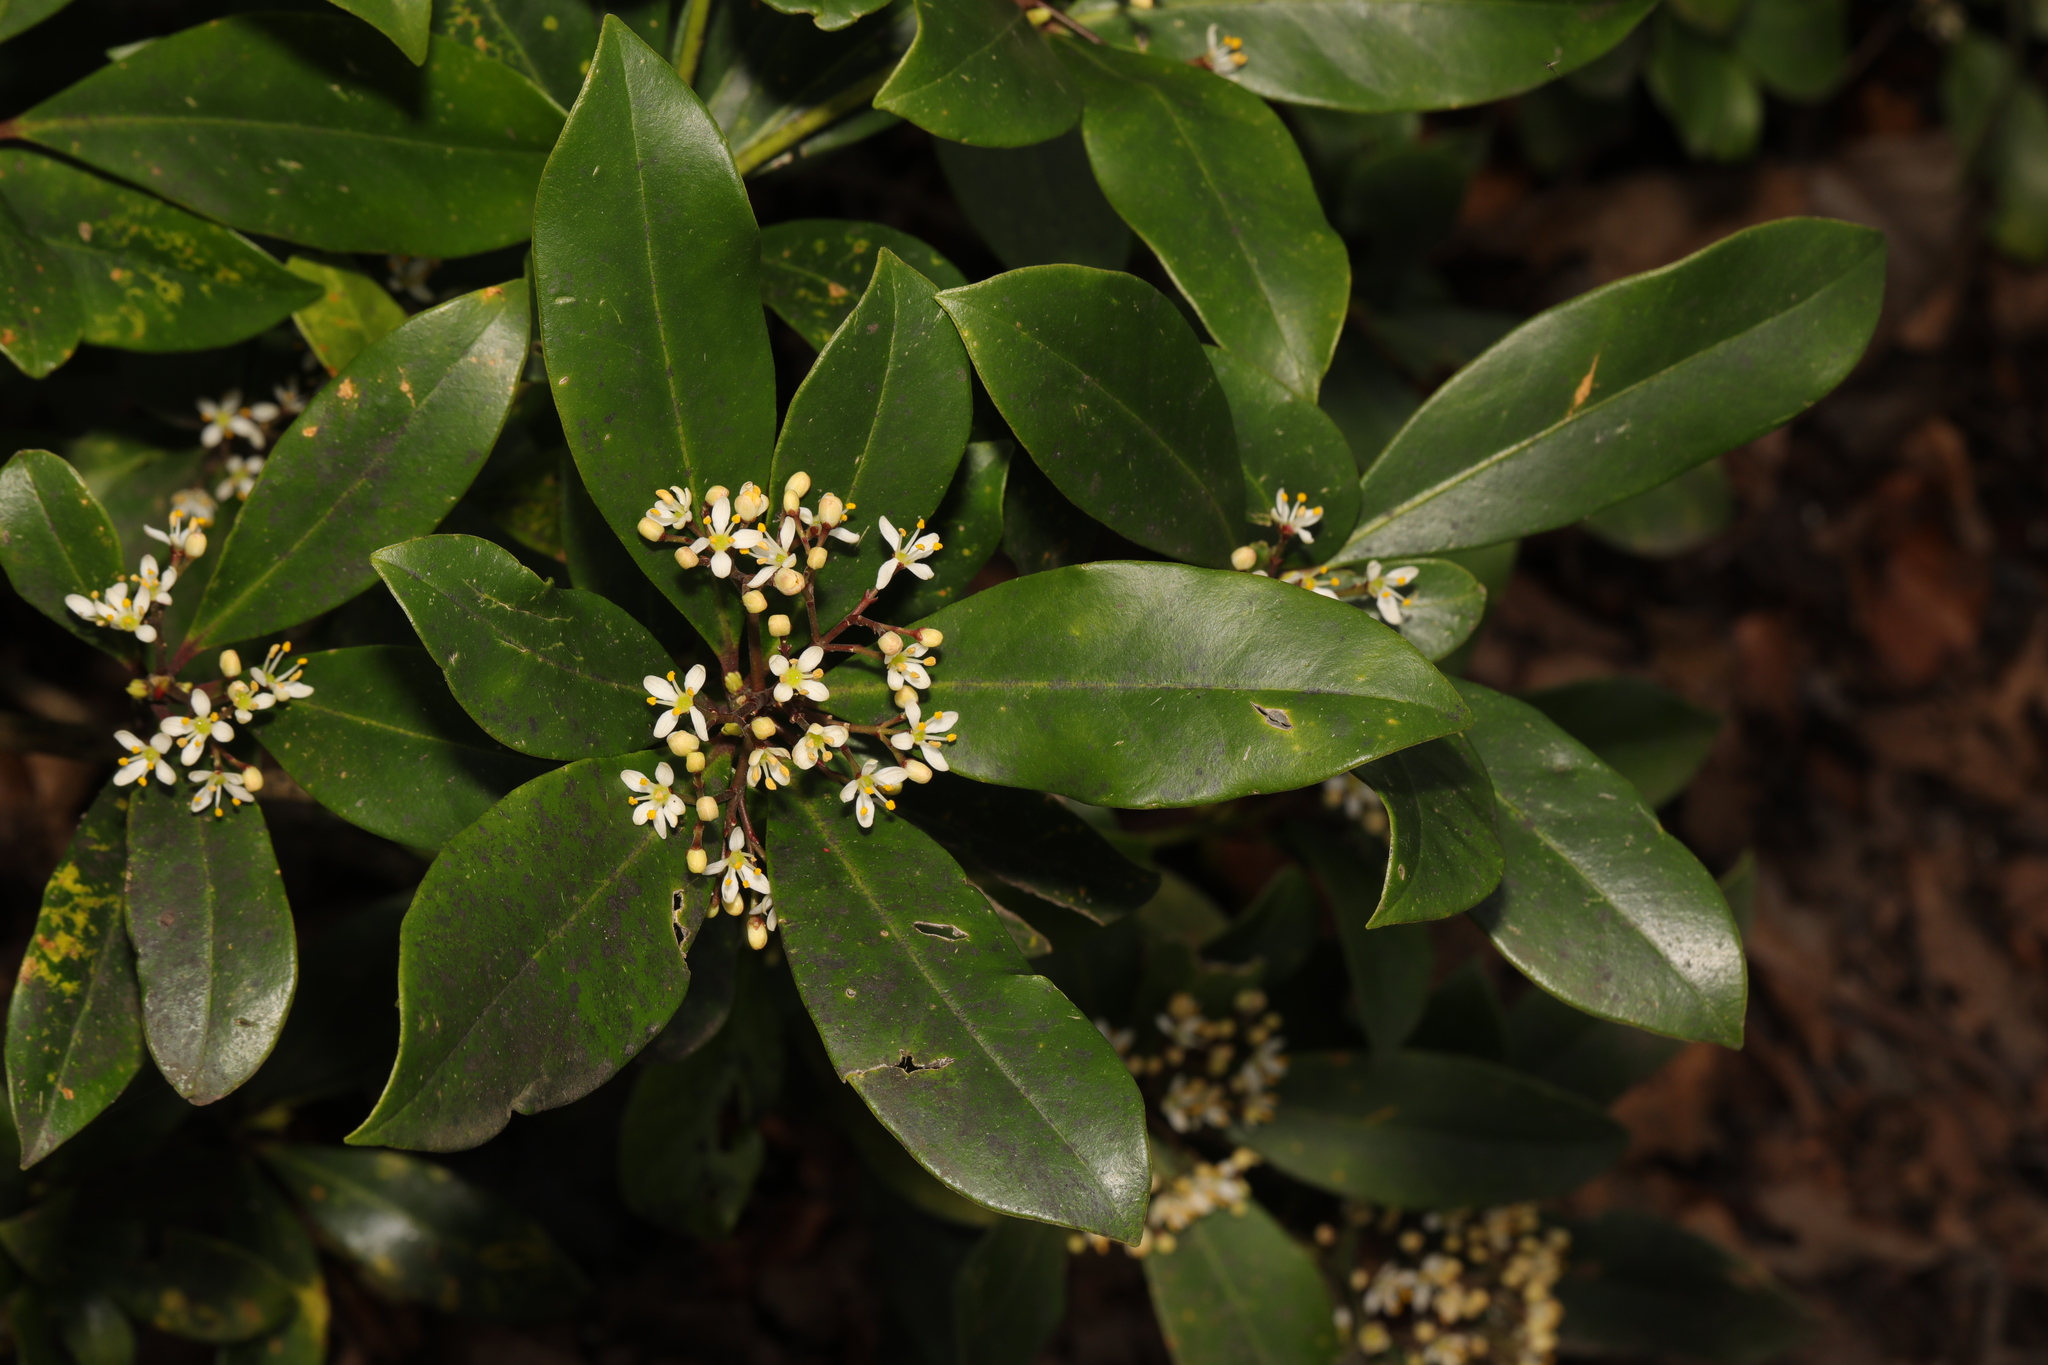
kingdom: Plantae
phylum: Tracheophyta
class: Magnoliopsida
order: Dipsacales
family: Viburnaceae
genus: Viburnum
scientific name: Viburnum tinus
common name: Laurustinus
